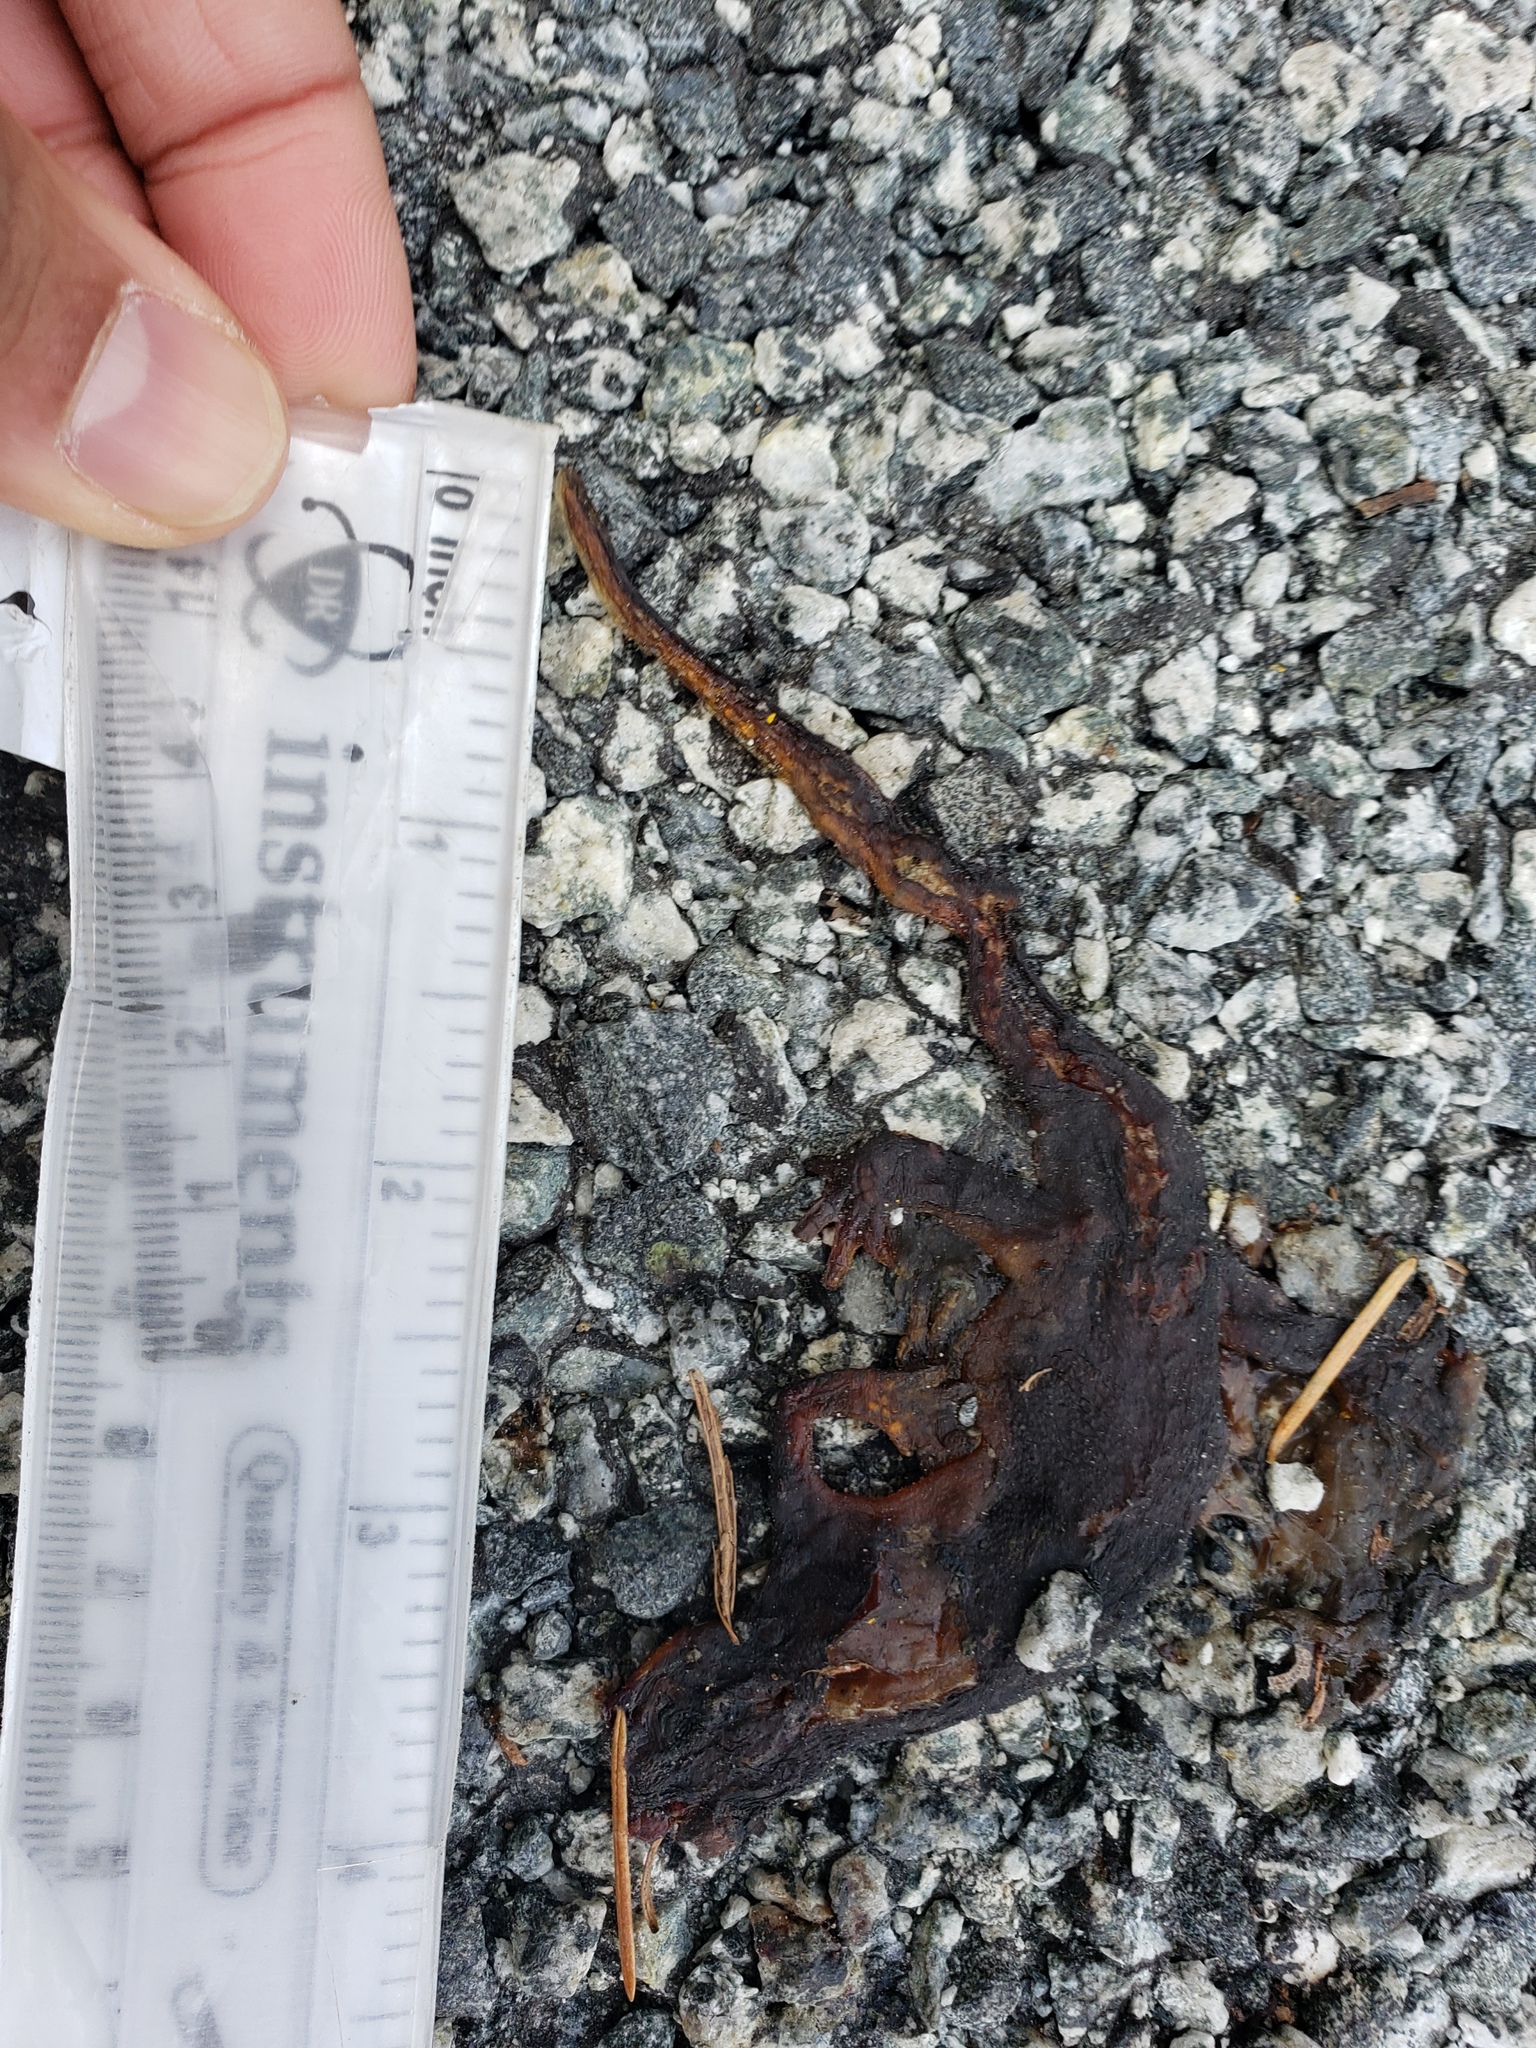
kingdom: Animalia
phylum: Chordata
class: Amphibia
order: Caudata
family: Salamandridae
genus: Taricha
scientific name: Taricha
